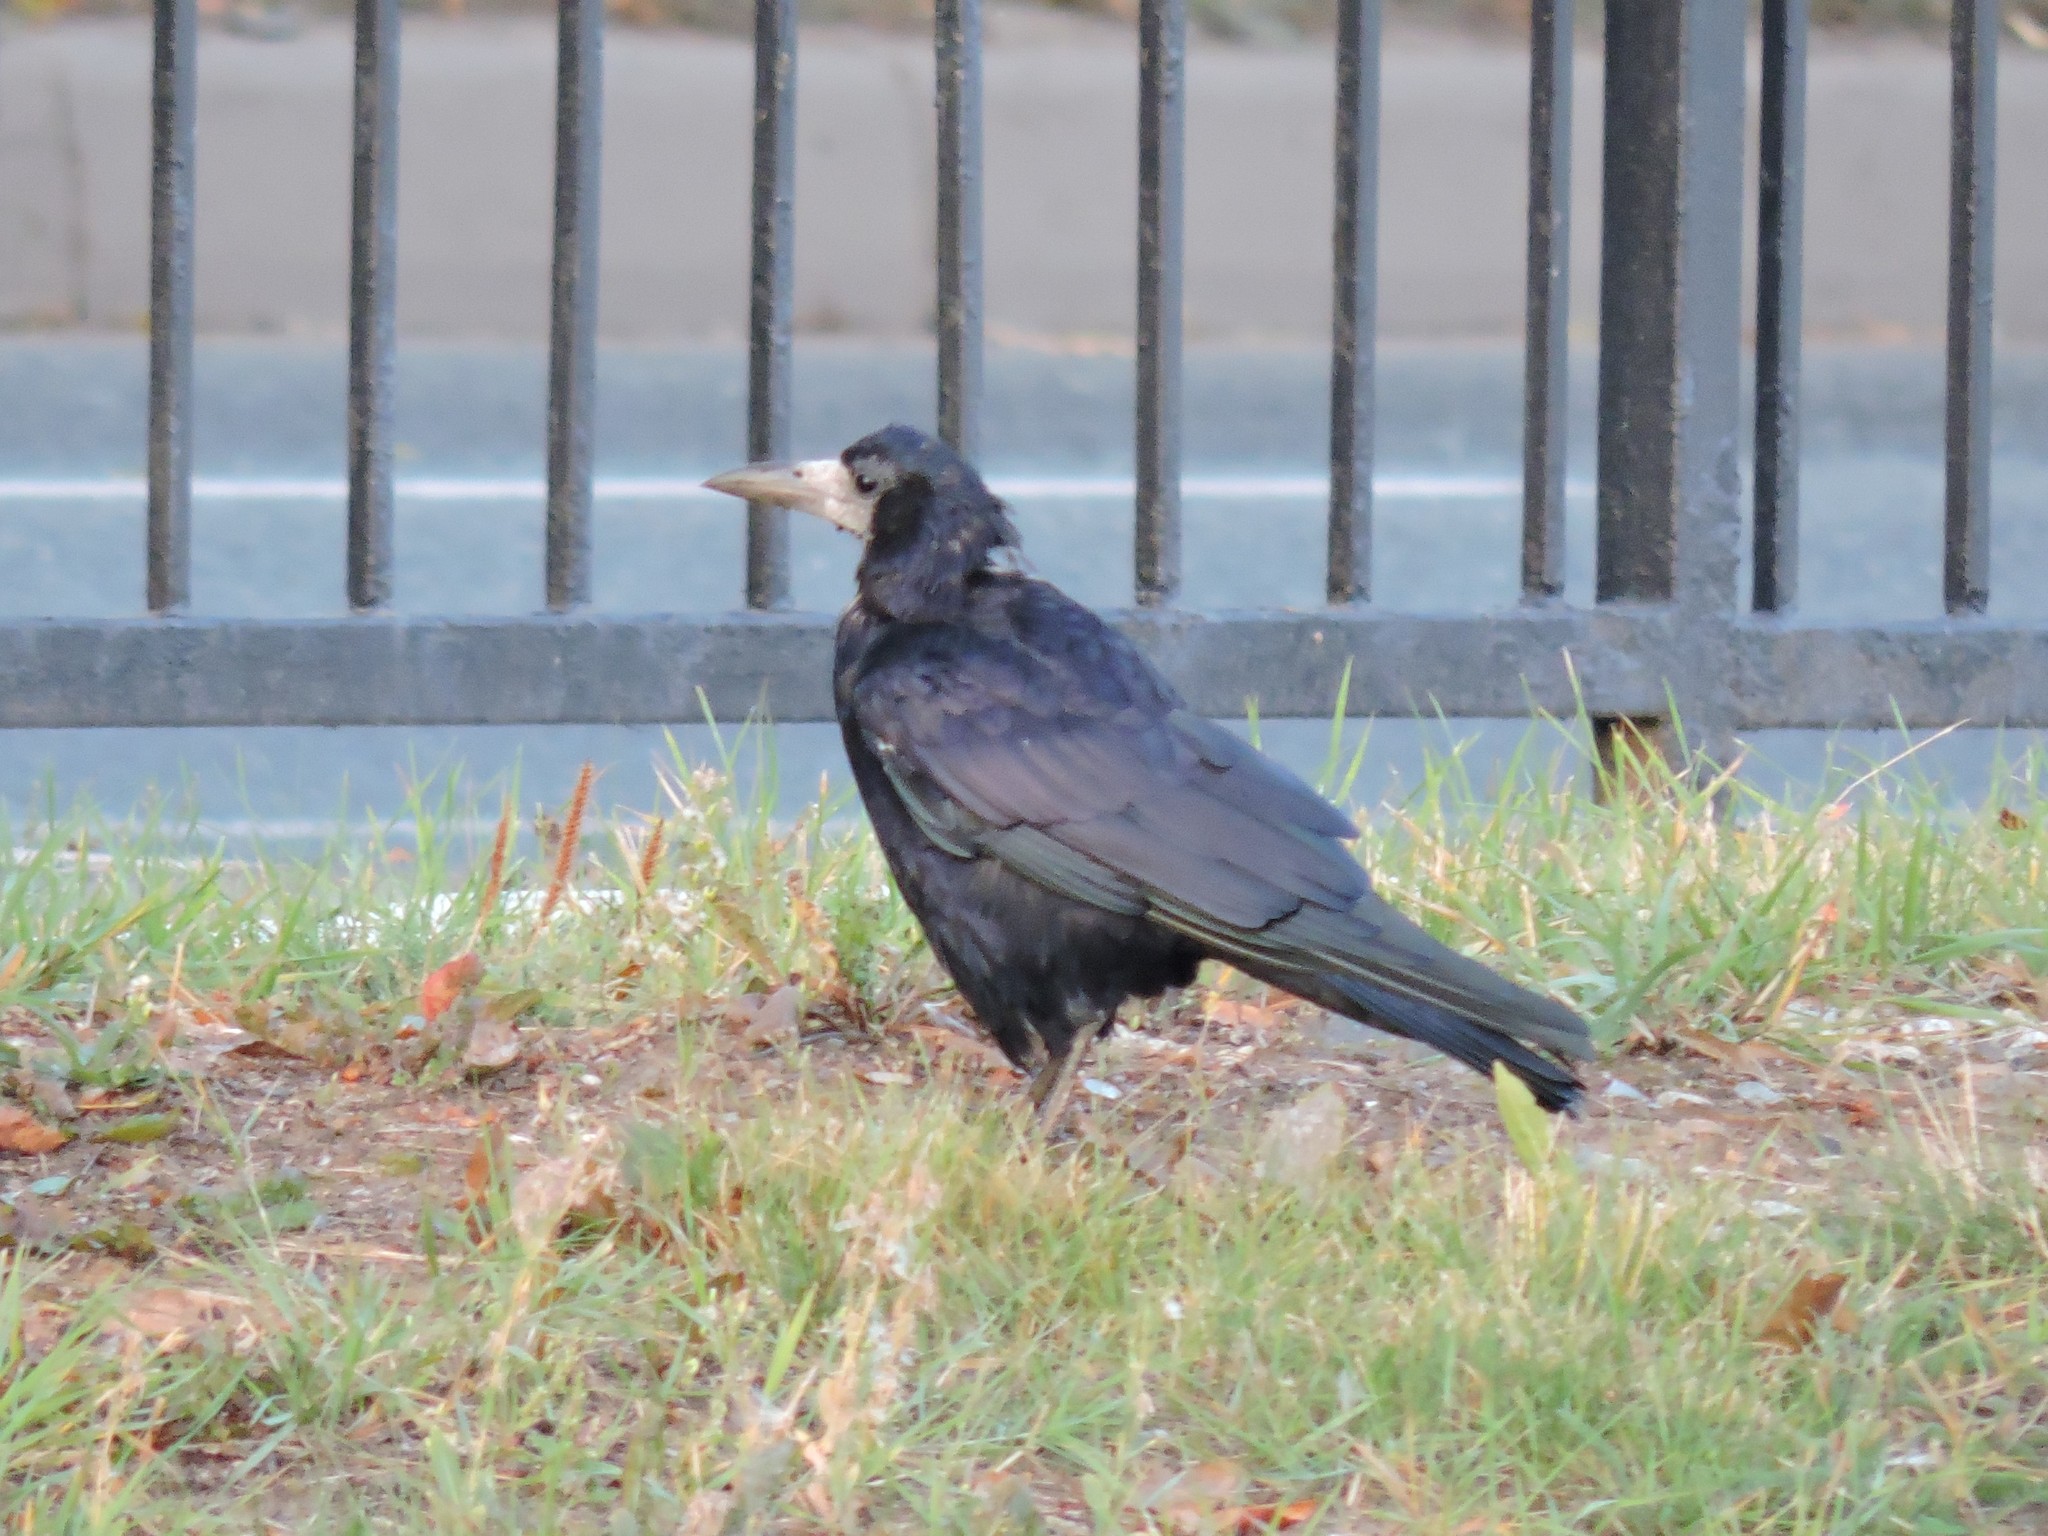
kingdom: Animalia
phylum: Chordata
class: Aves
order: Passeriformes
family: Corvidae
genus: Corvus
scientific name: Corvus frugilegus
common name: Rook
